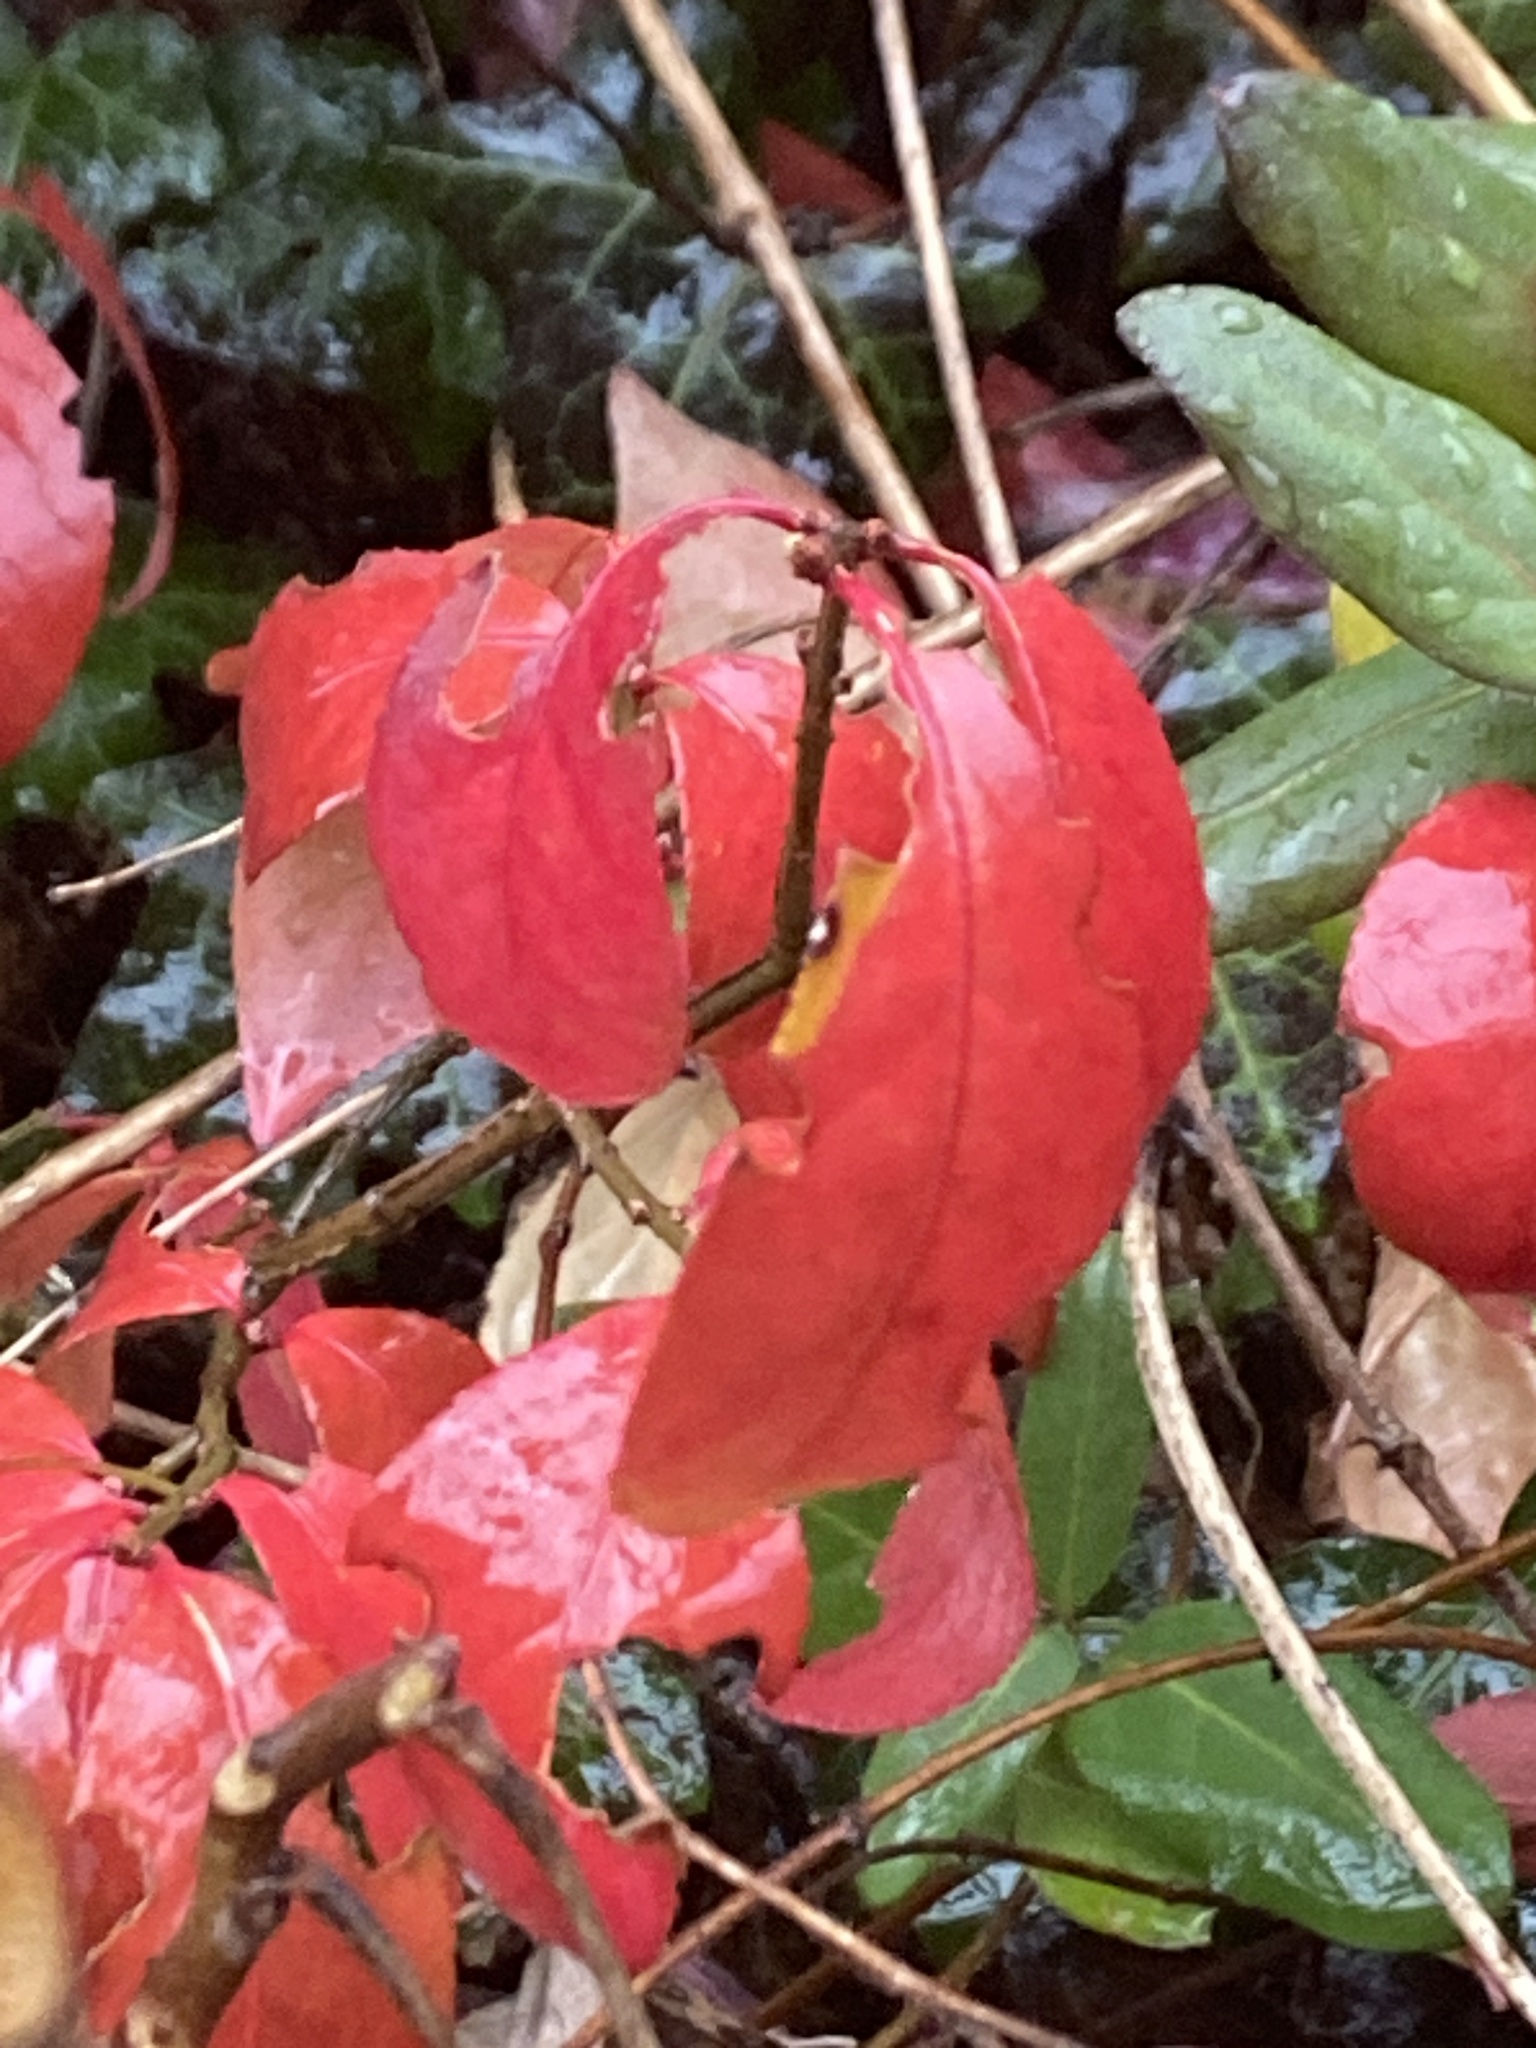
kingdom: Plantae
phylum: Tracheophyta
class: Magnoliopsida
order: Celastrales
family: Celastraceae
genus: Euonymus
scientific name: Euonymus alatus
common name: Winged euonymus
